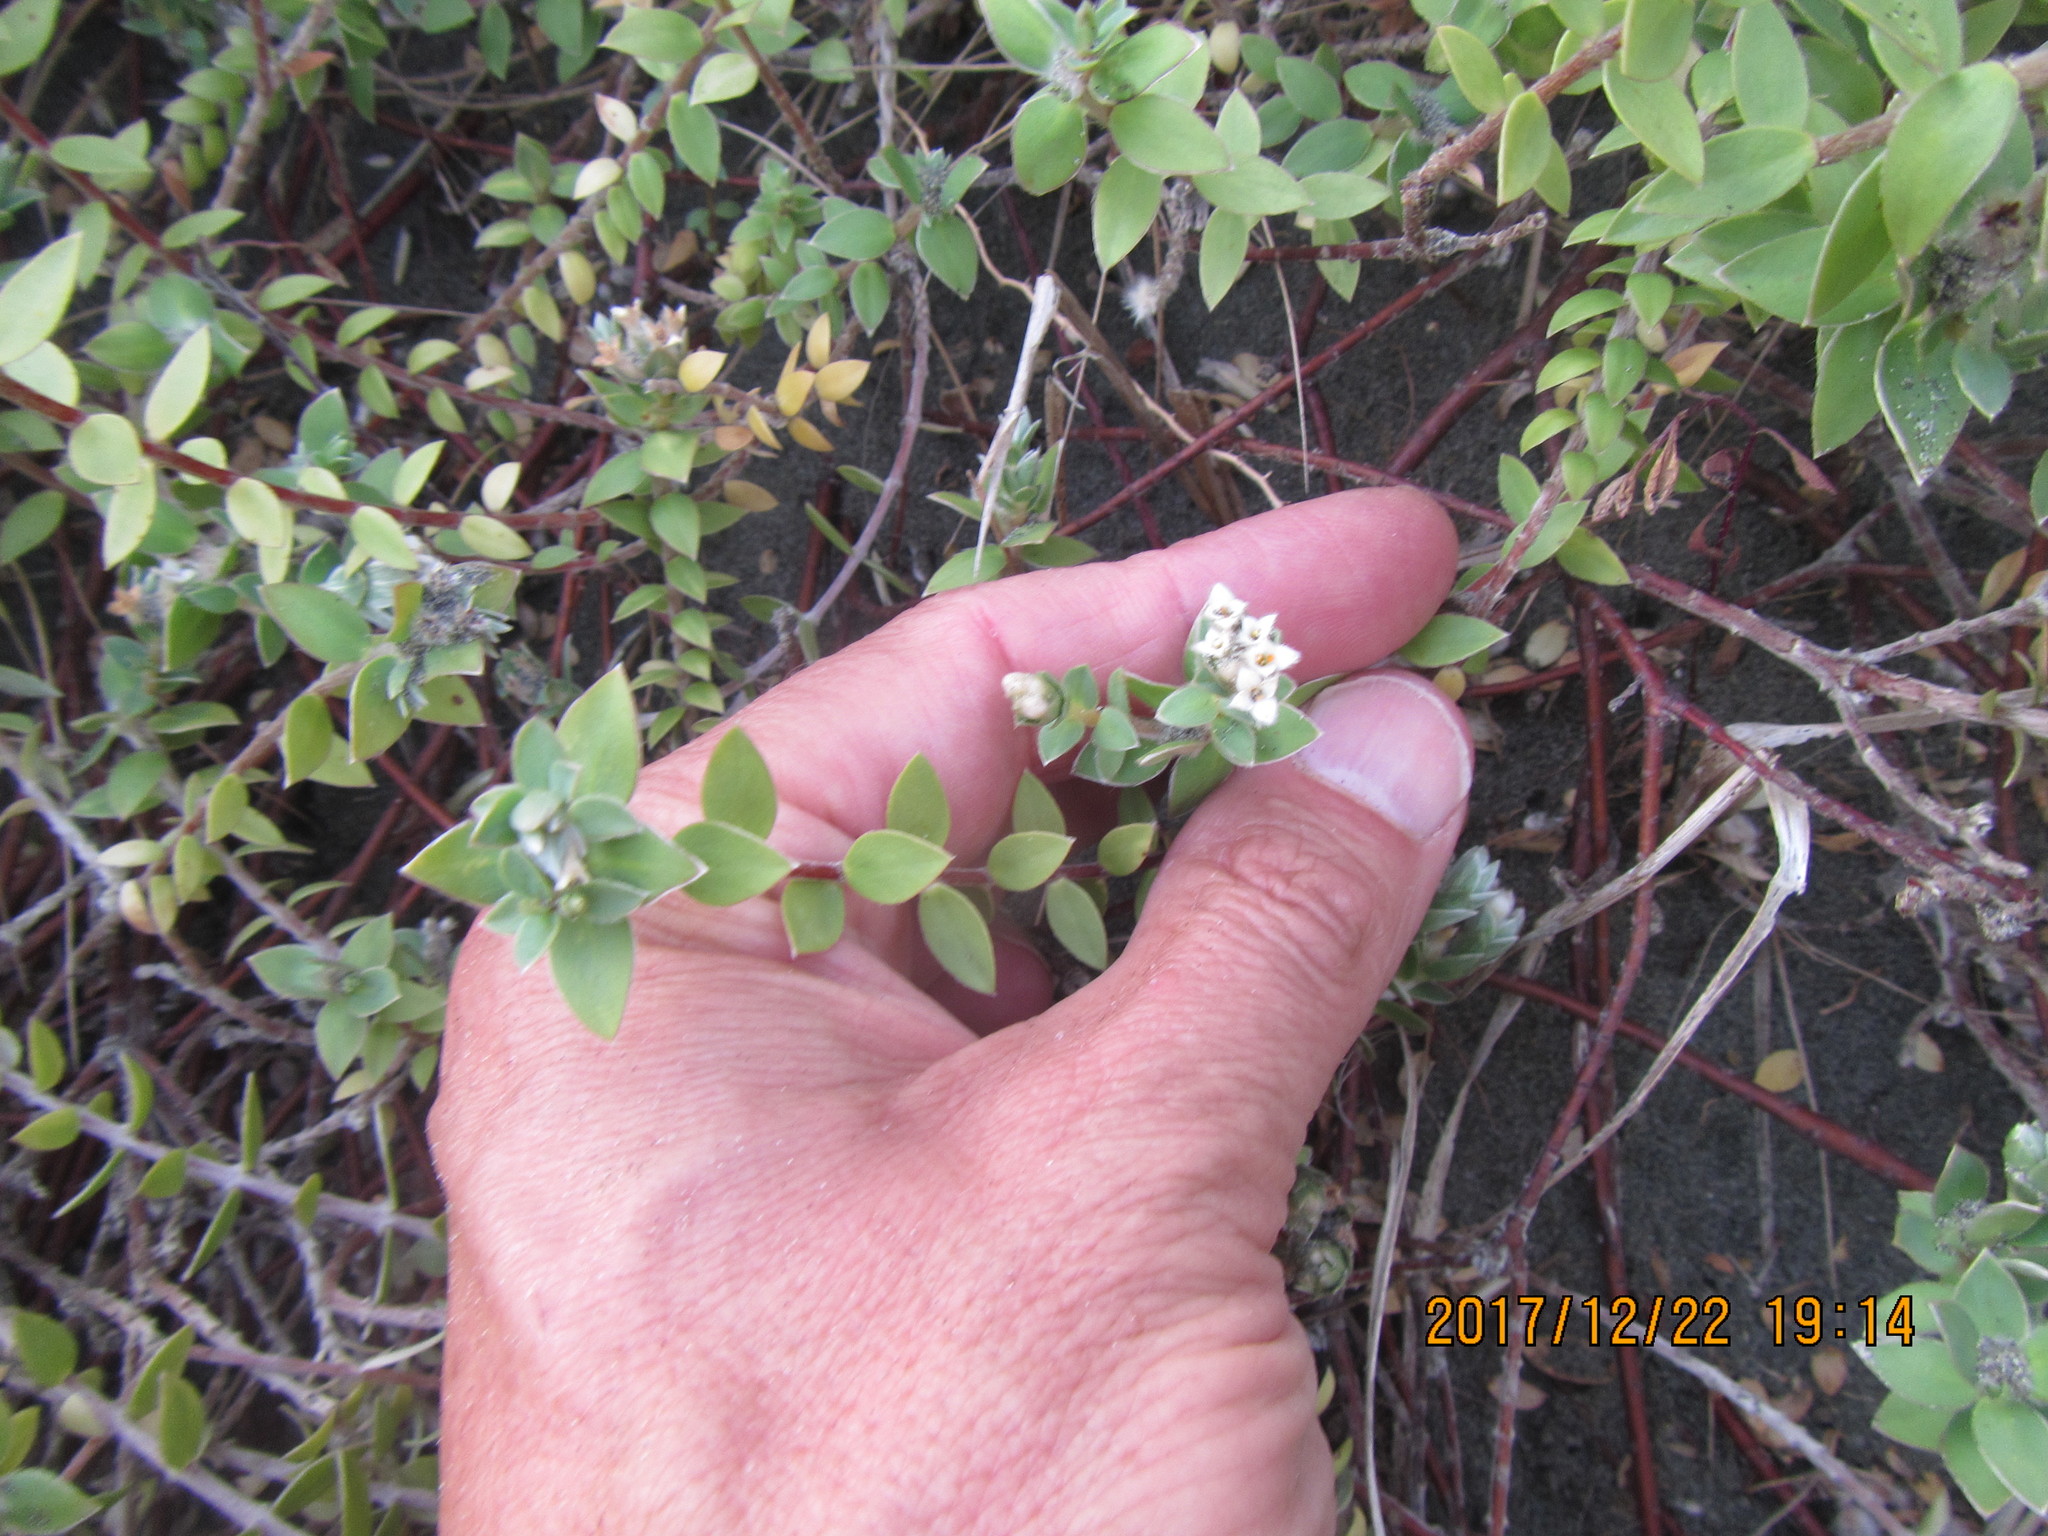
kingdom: Plantae
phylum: Tracheophyta
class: Magnoliopsida
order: Malvales
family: Thymelaeaceae
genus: Pimelea
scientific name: Pimelea villosa
